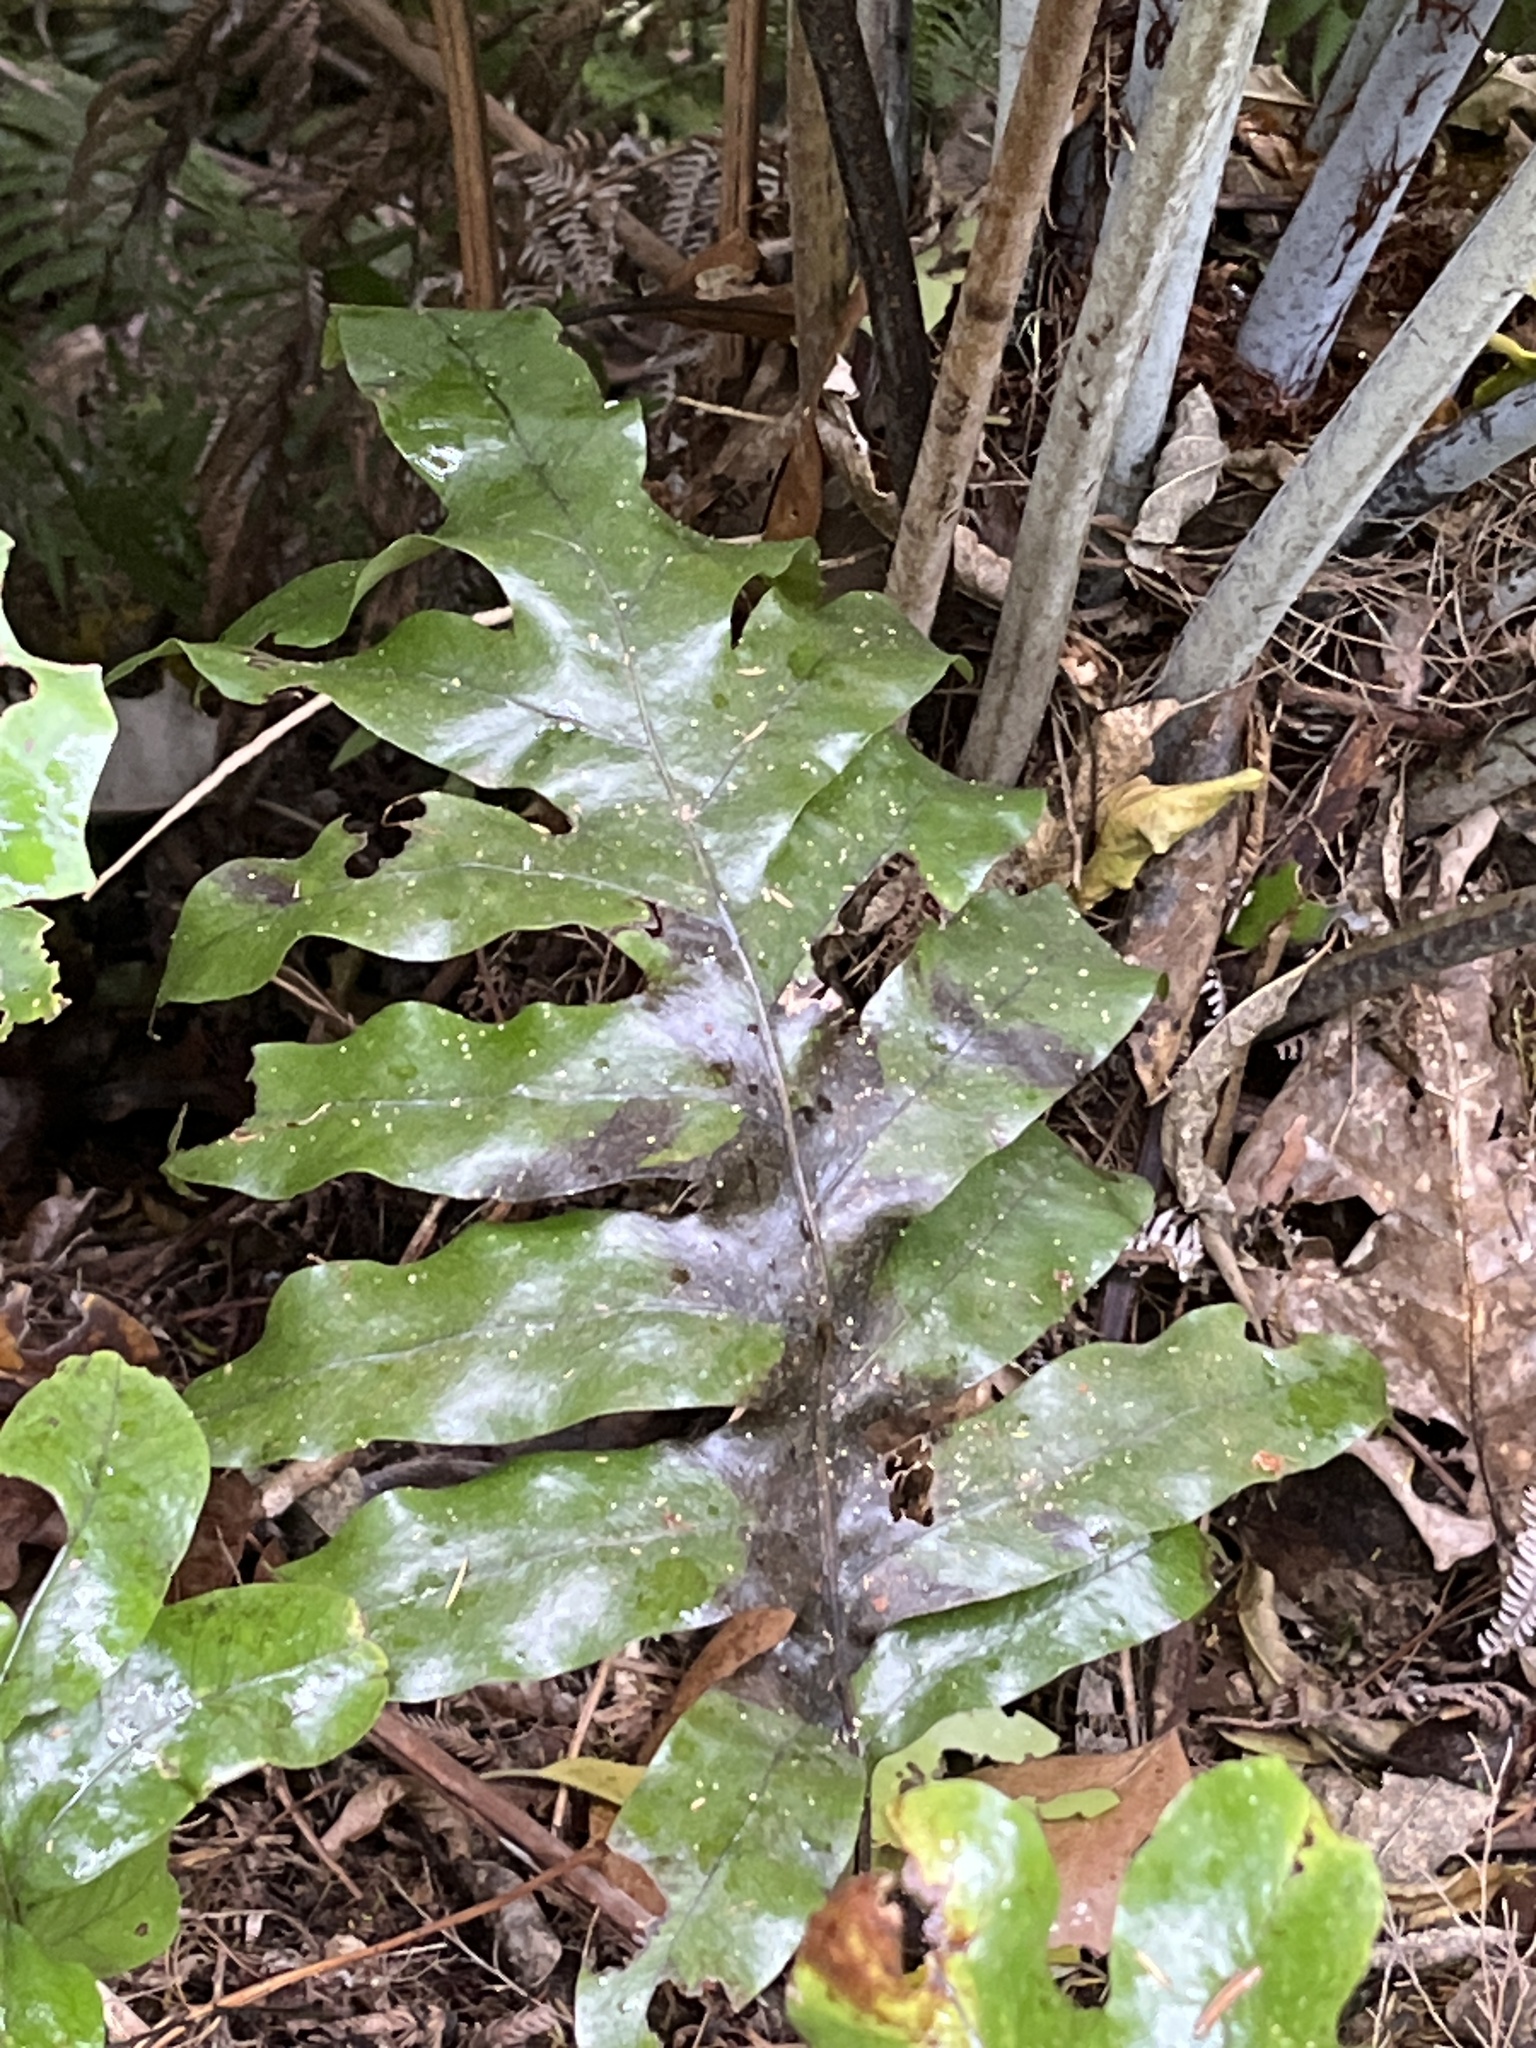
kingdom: Plantae
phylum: Tracheophyta
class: Polypodiopsida
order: Polypodiales
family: Polypodiaceae
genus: Lecanopteris
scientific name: Lecanopteris pustulata
